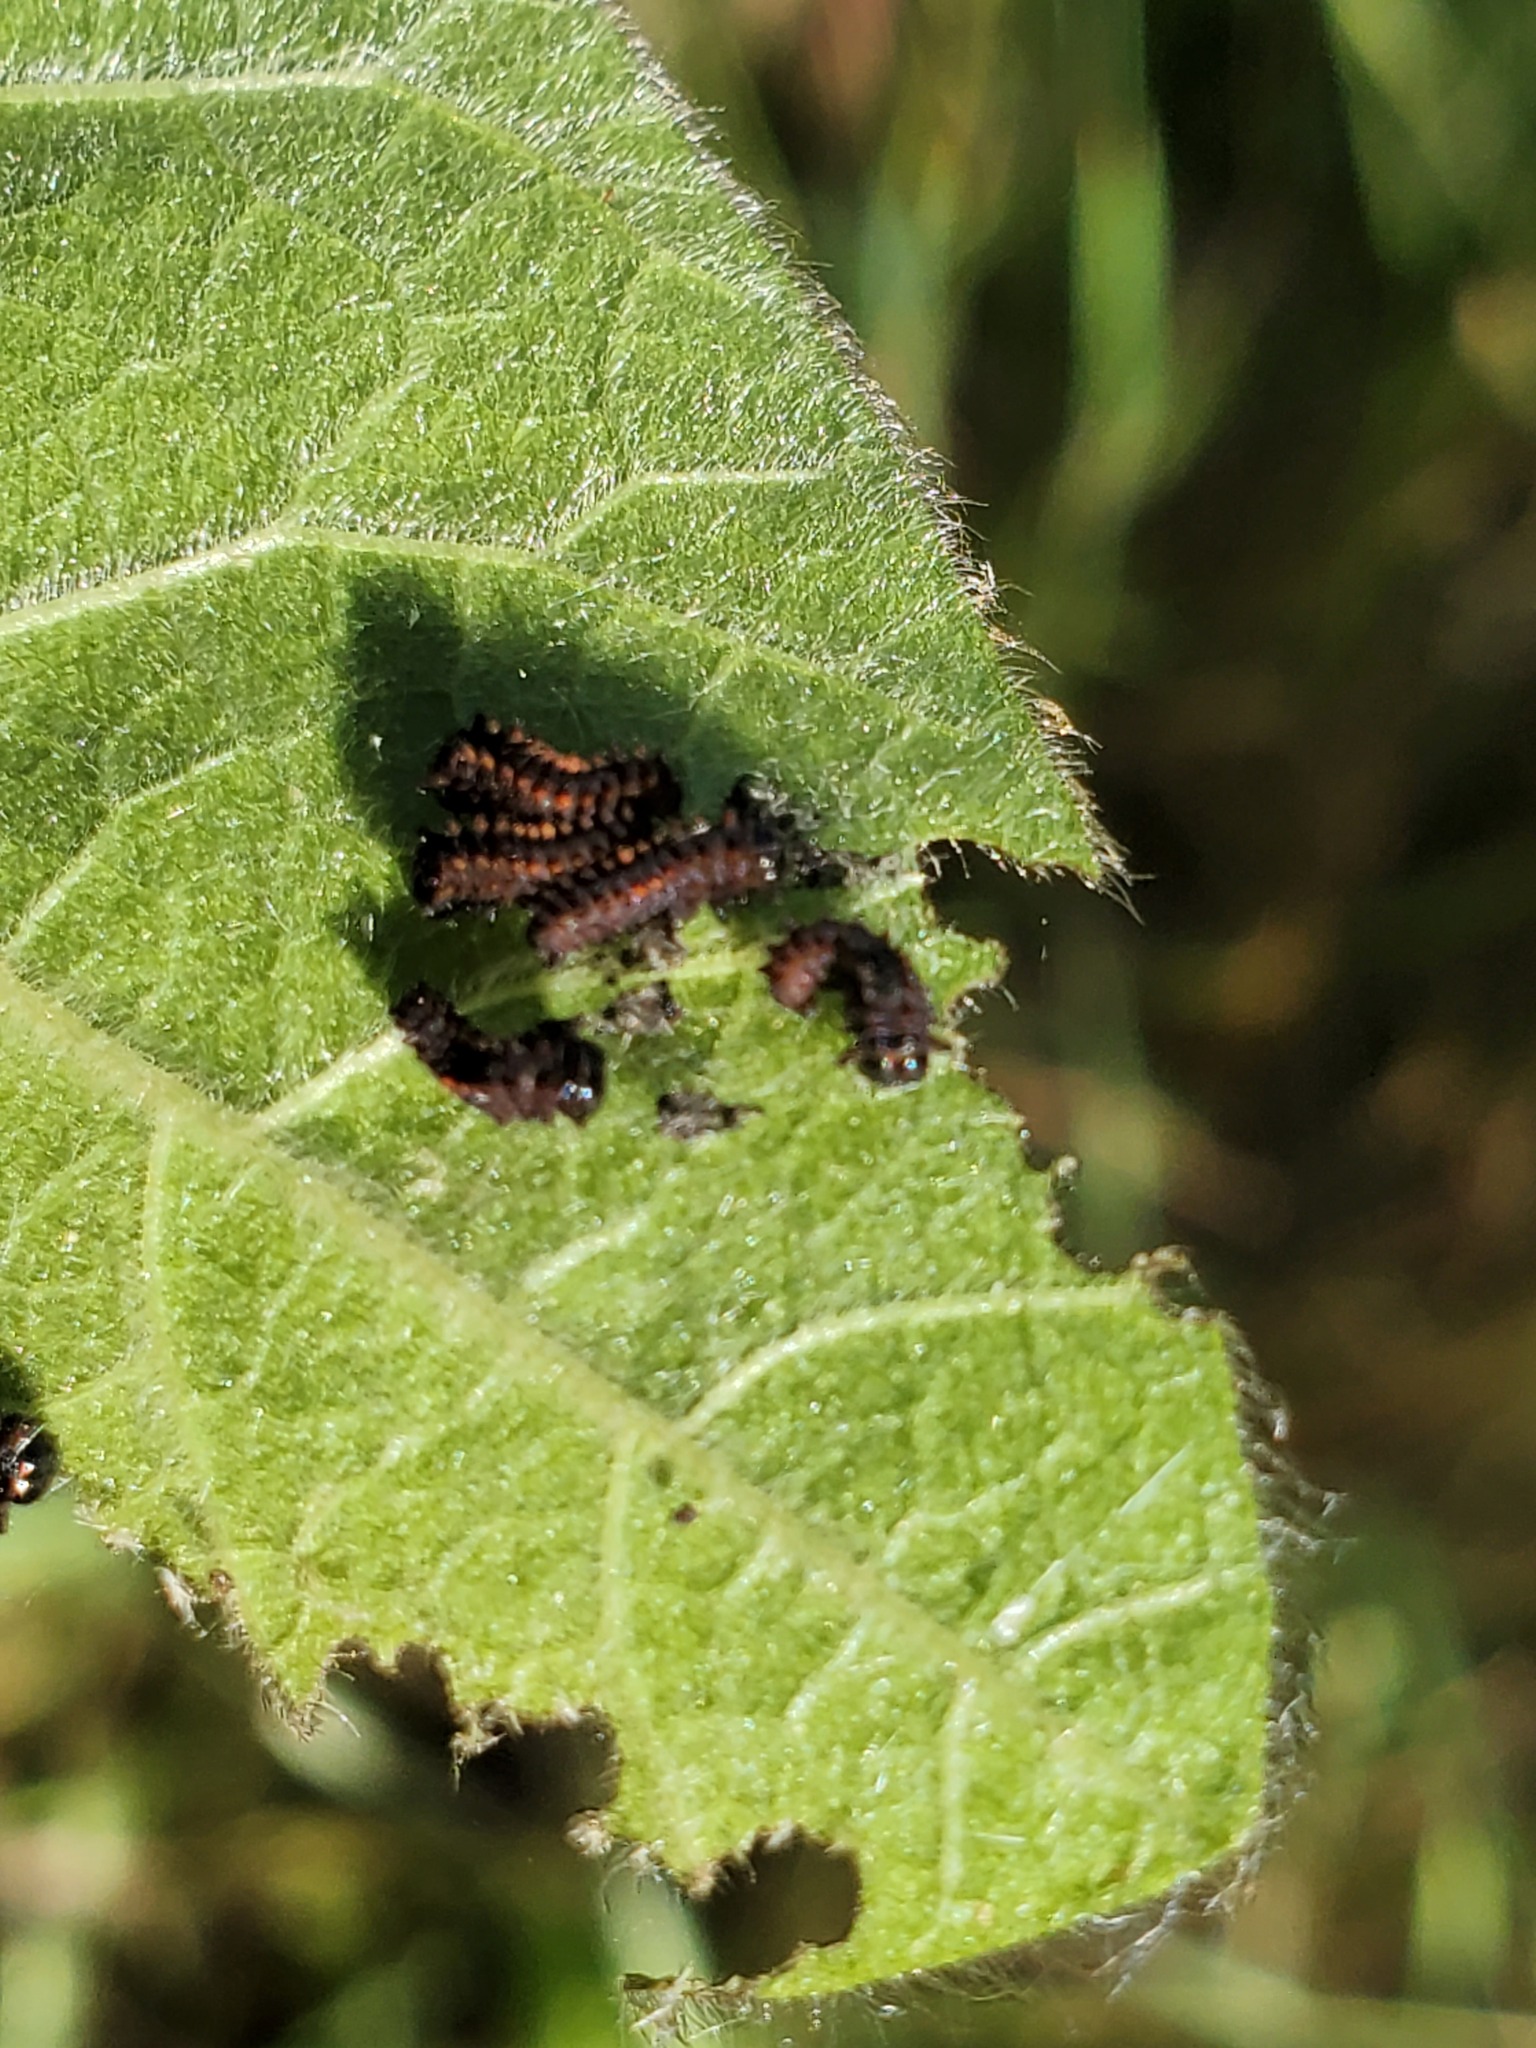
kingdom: Animalia
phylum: Arthropoda
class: Insecta
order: Lepidoptera
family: Papilionidae
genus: Battus
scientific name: Battus philenor
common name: Pipevine swallowtail
